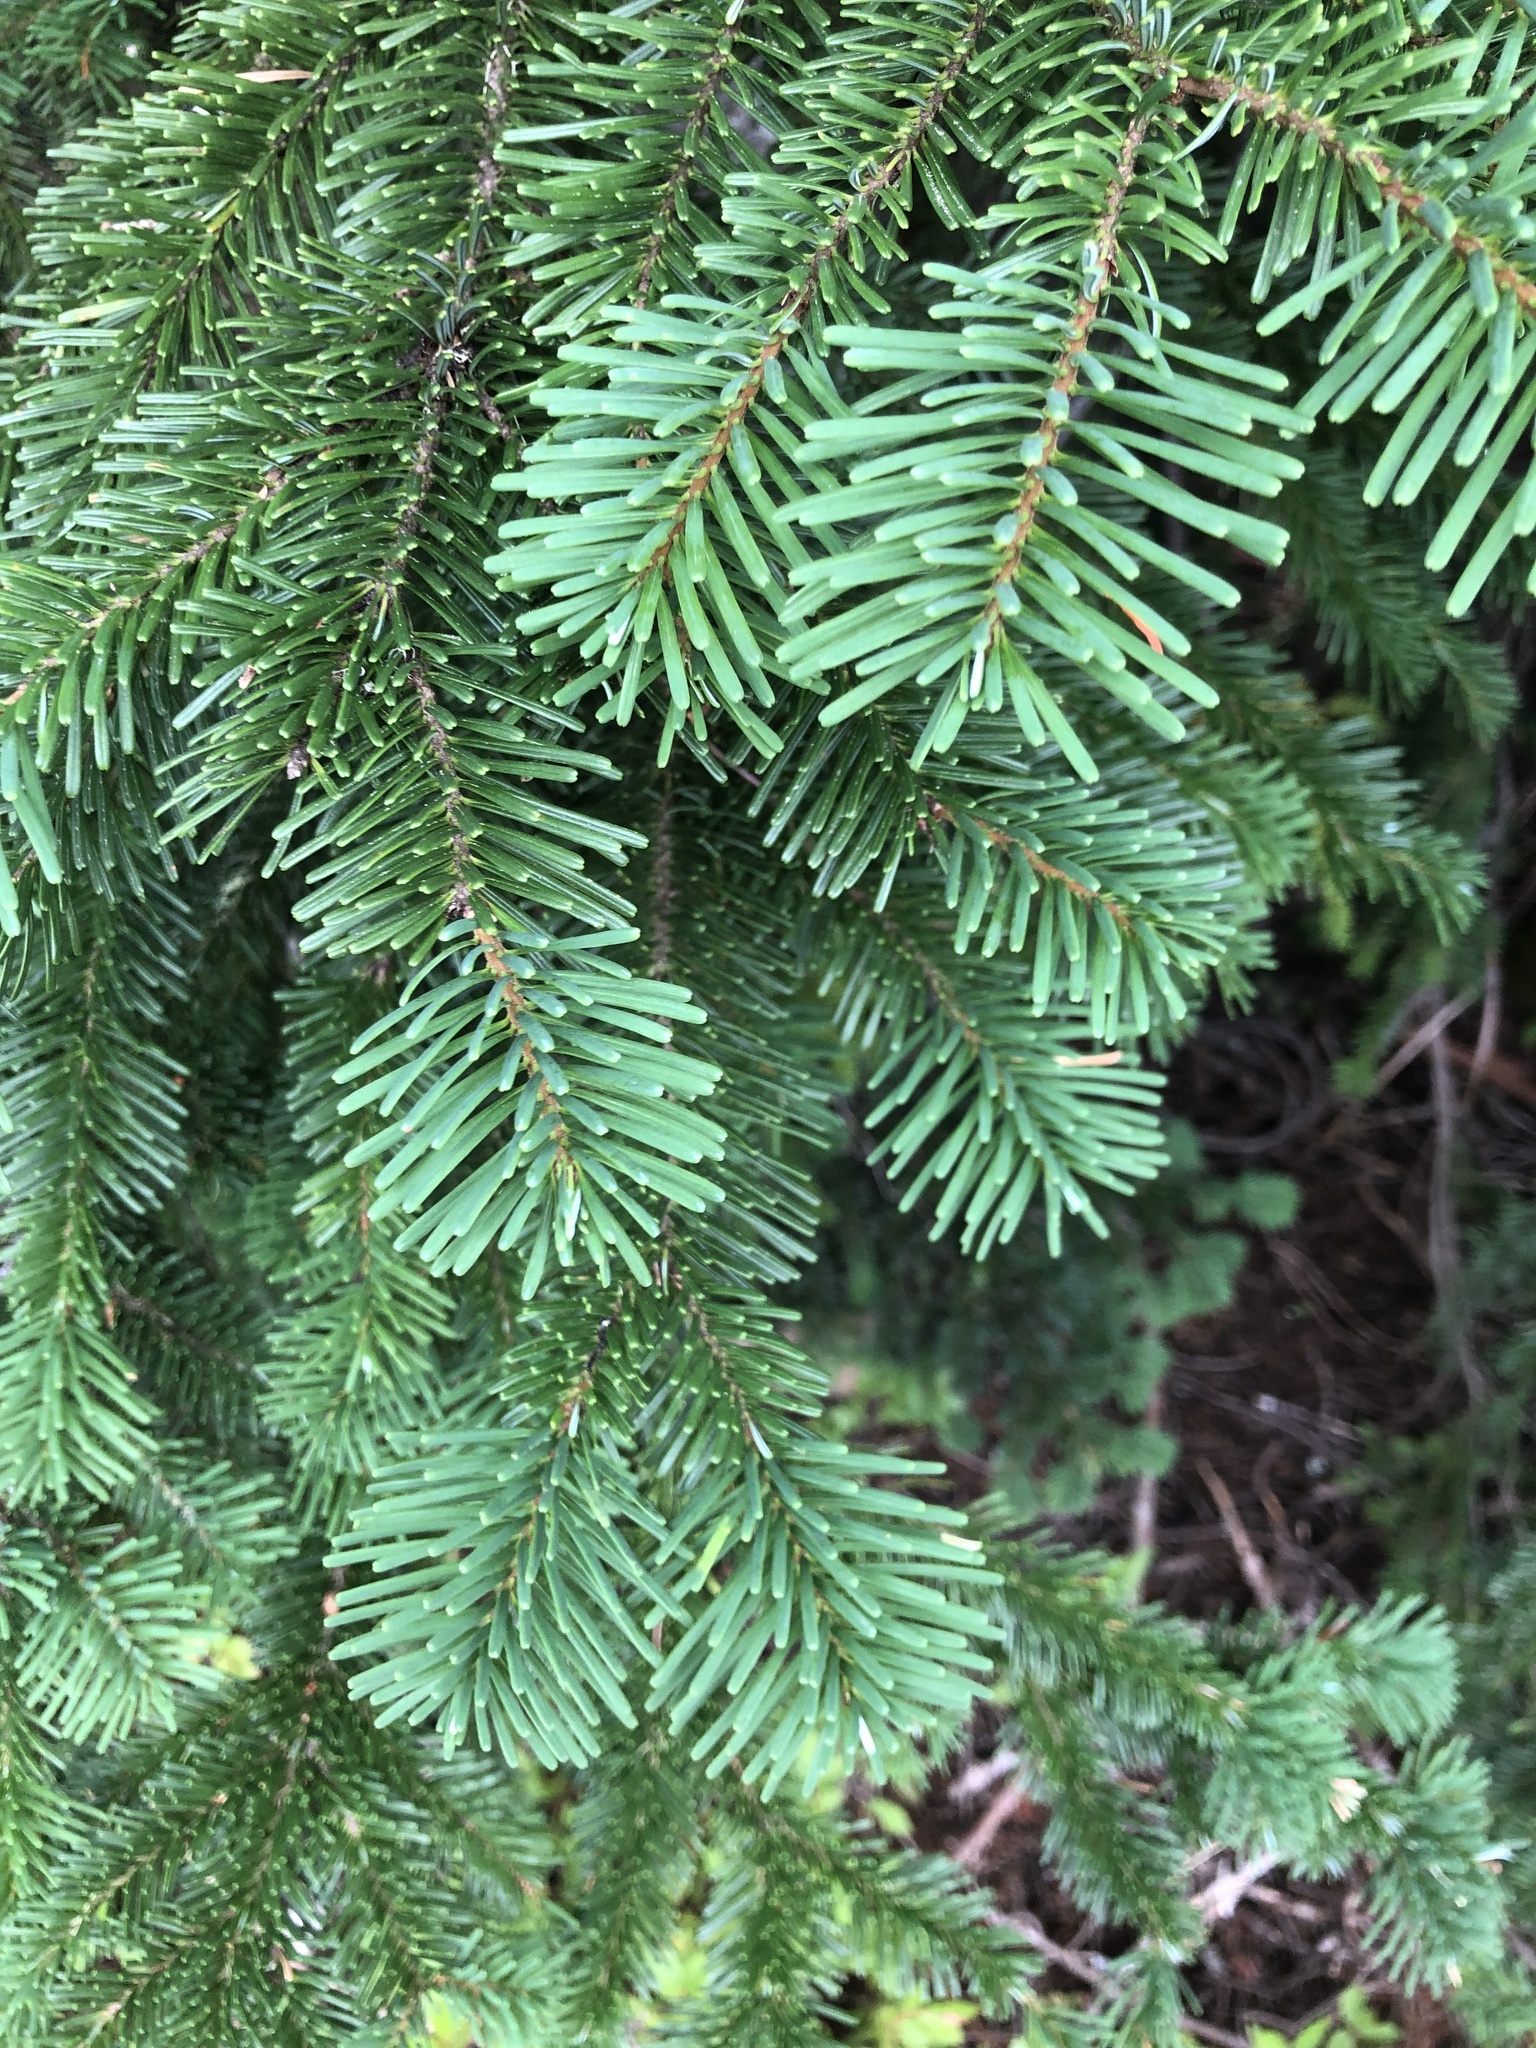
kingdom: Plantae
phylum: Tracheophyta
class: Pinopsida
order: Pinales
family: Pinaceae
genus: Abies
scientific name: Abies amabilis
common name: Pacific silver fir
